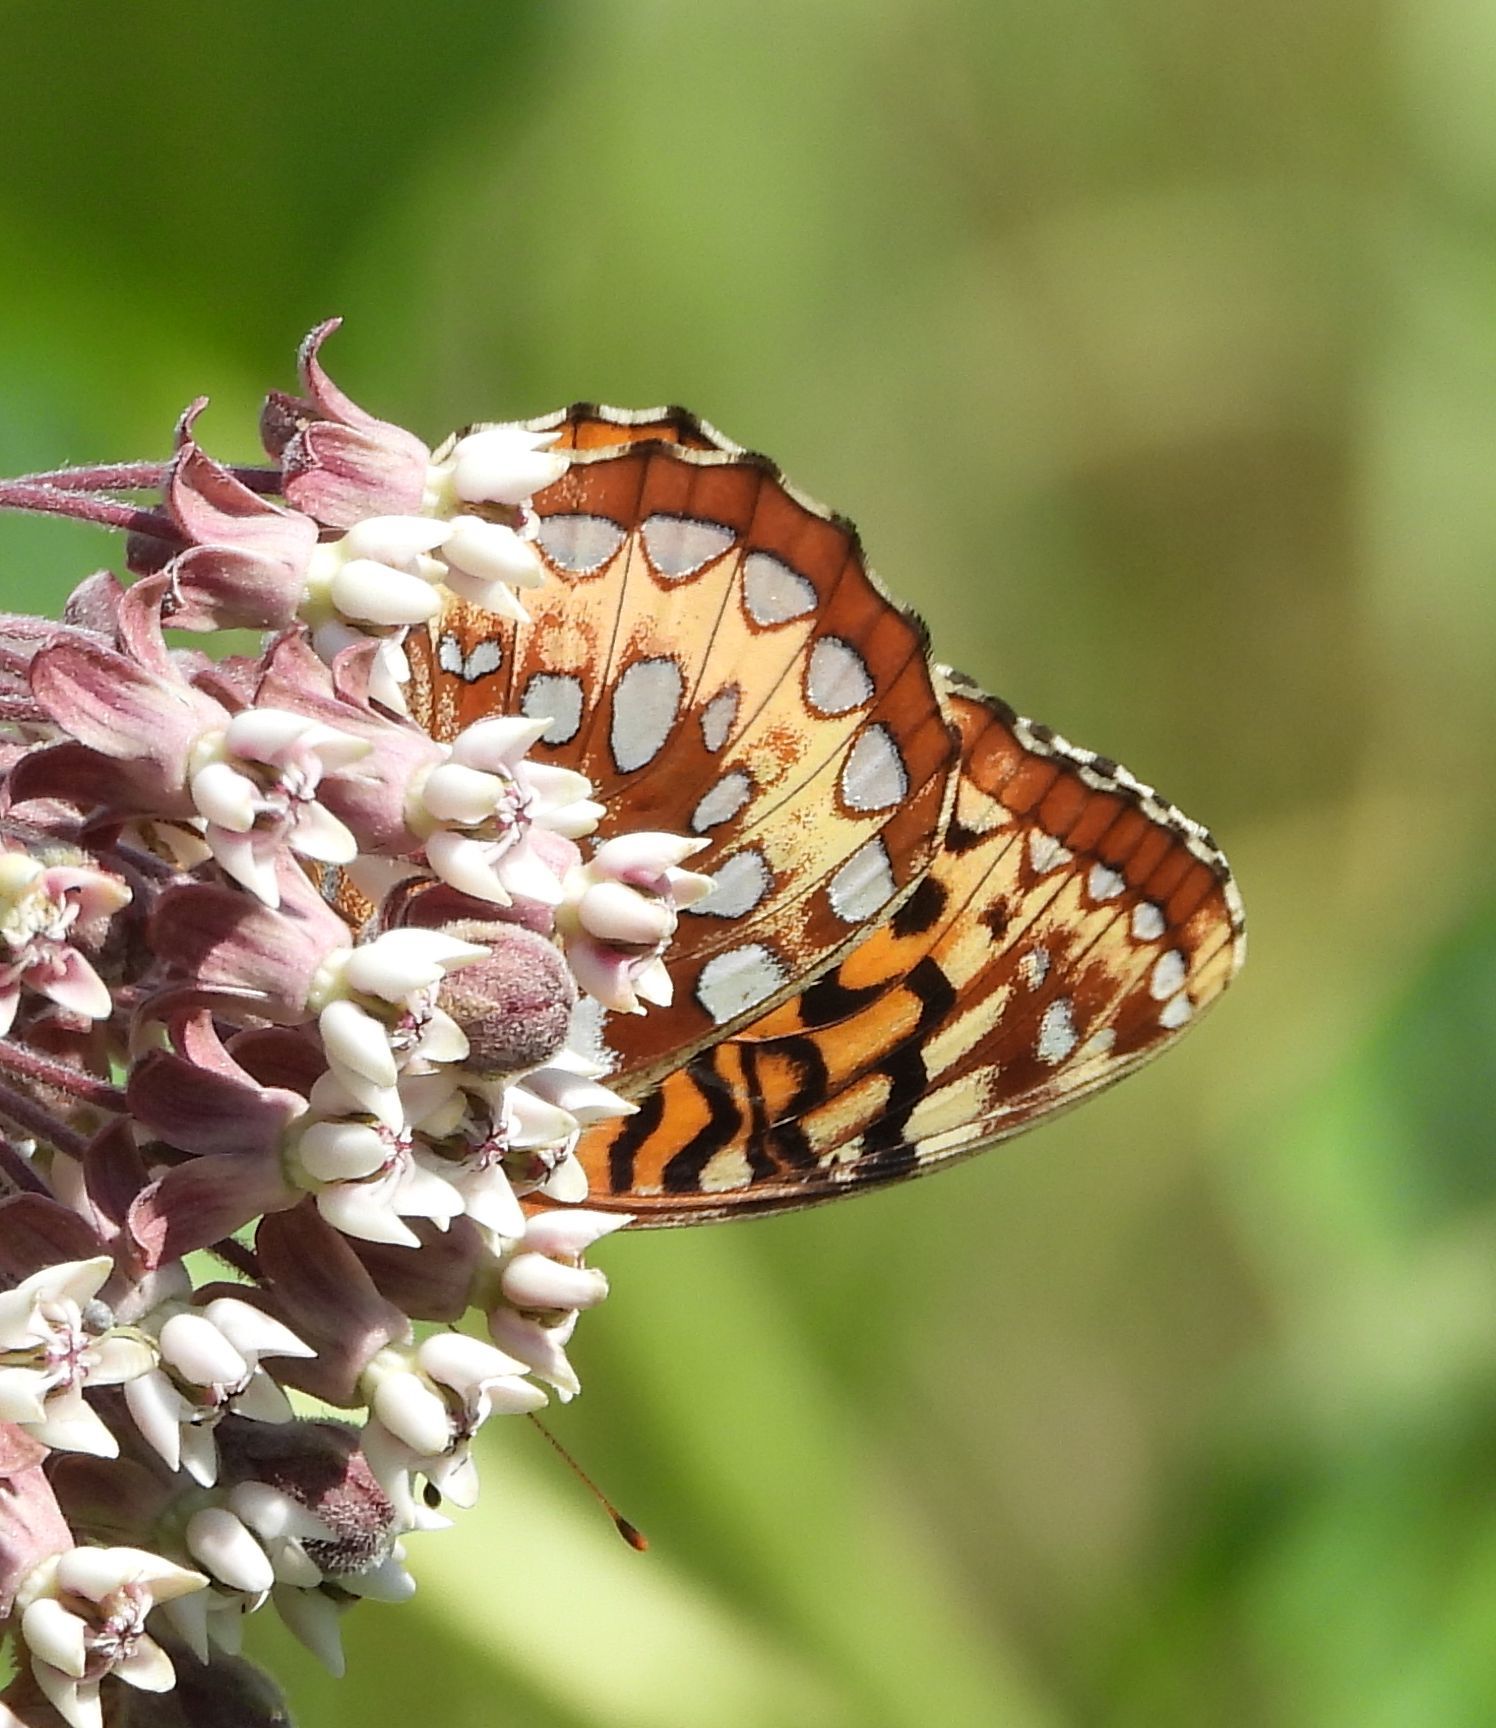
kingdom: Animalia
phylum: Arthropoda
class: Insecta
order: Lepidoptera
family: Nymphalidae
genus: Speyeria
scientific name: Speyeria cybele
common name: Great spangled fritillary
